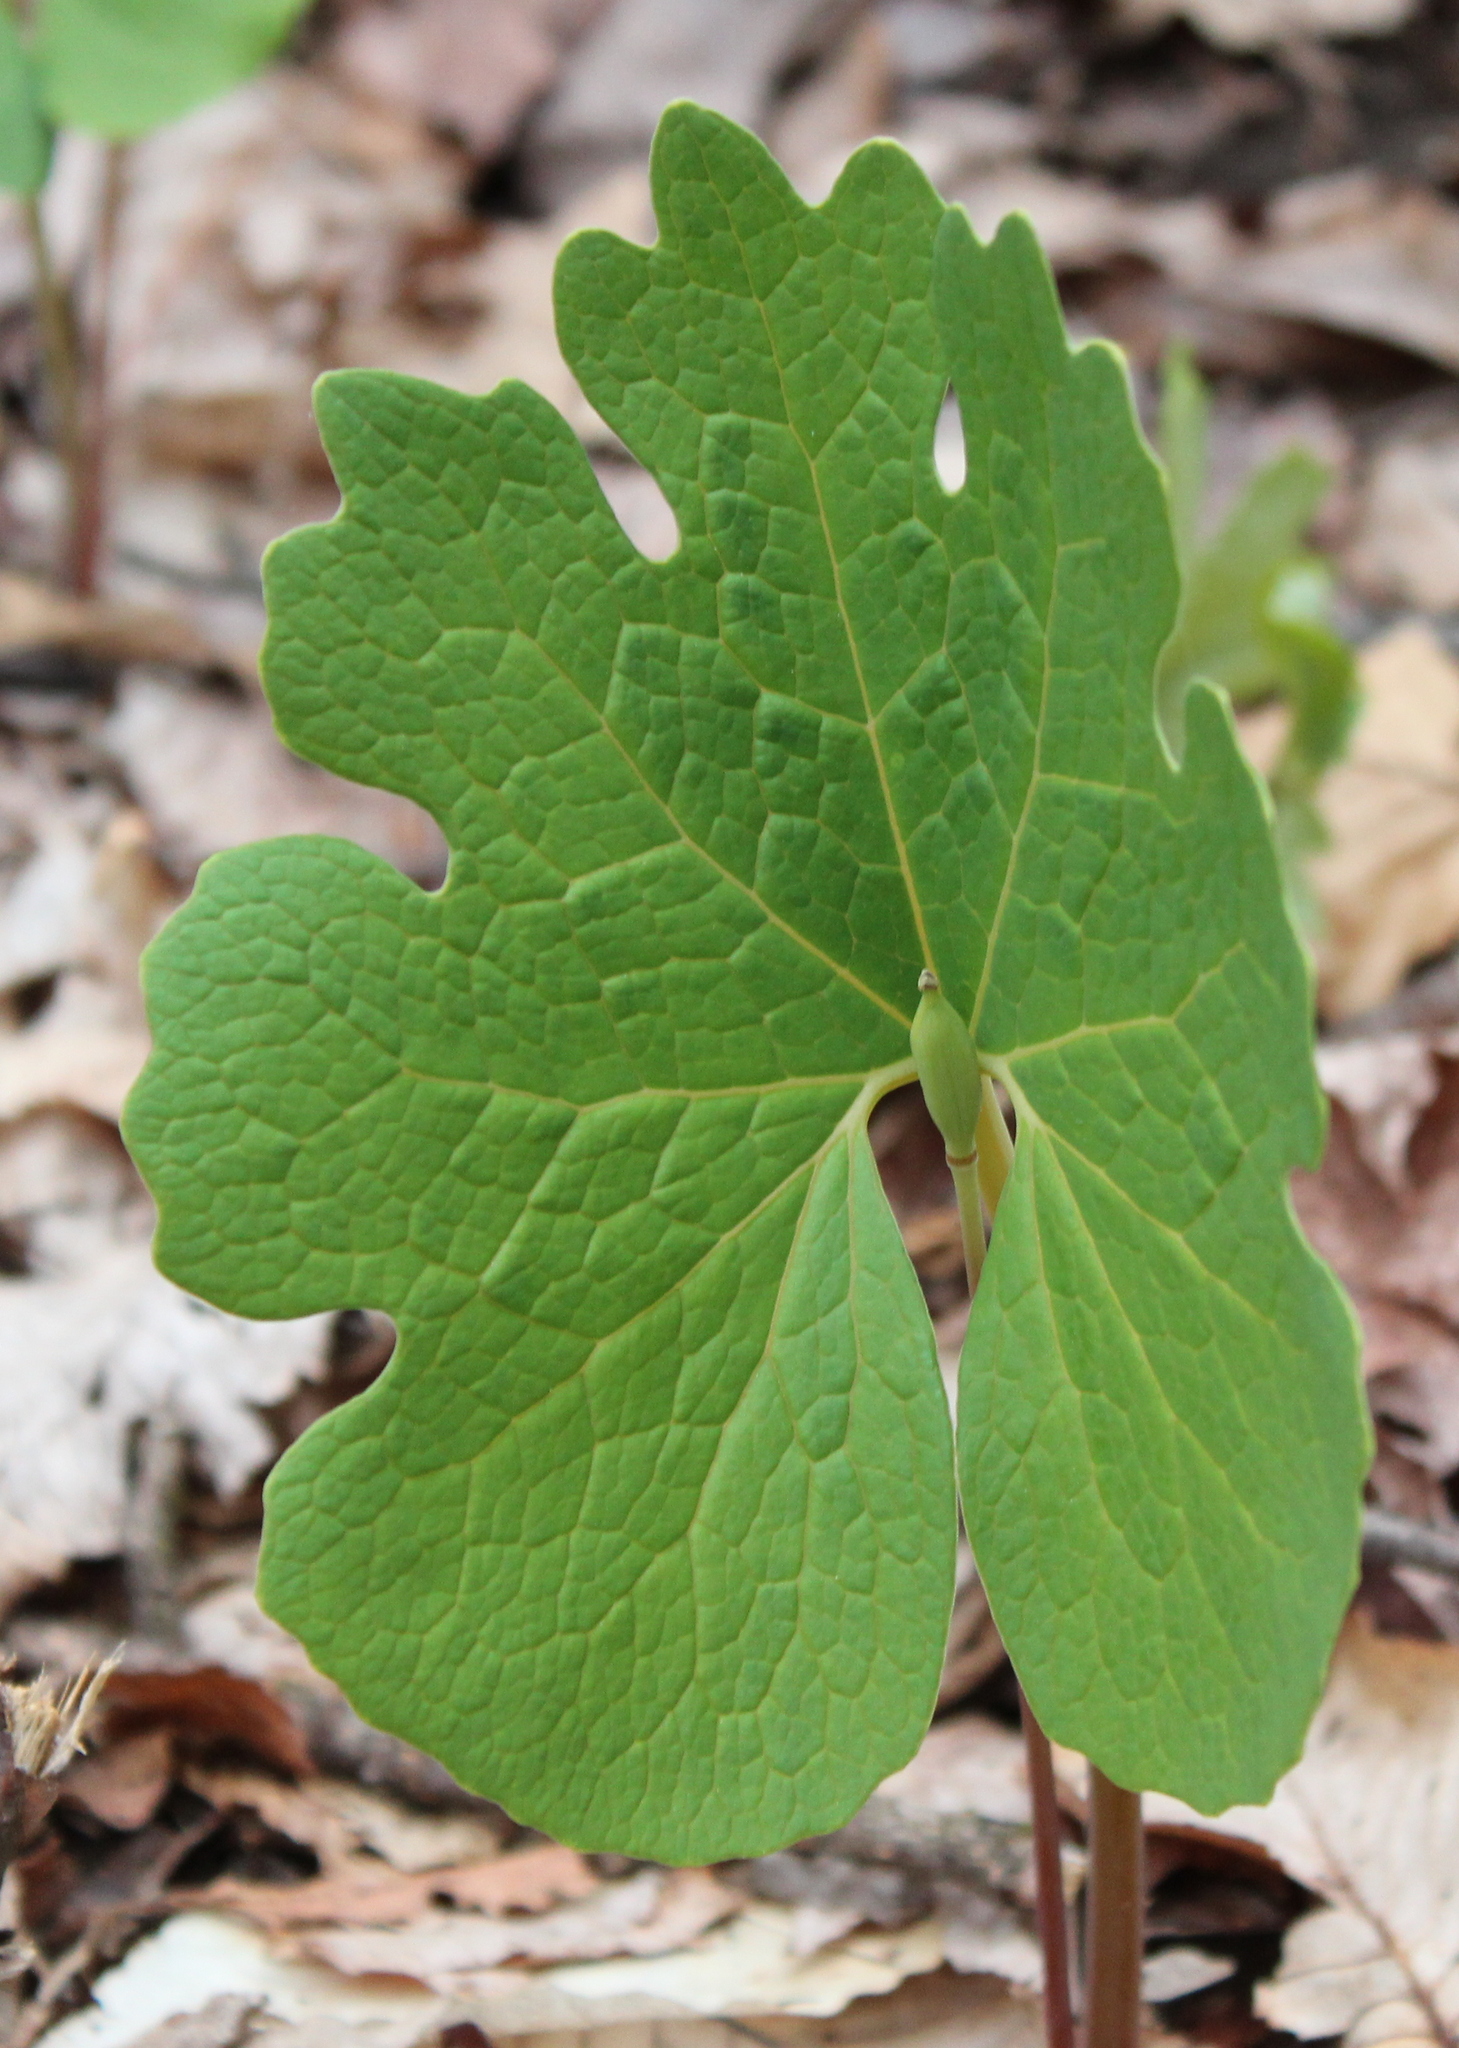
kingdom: Plantae
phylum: Tracheophyta
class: Magnoliopsida
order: Ranunculales
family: Papaveraceae
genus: Sanguinaria
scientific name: Sanguinaria canadensis
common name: Bloodroot
